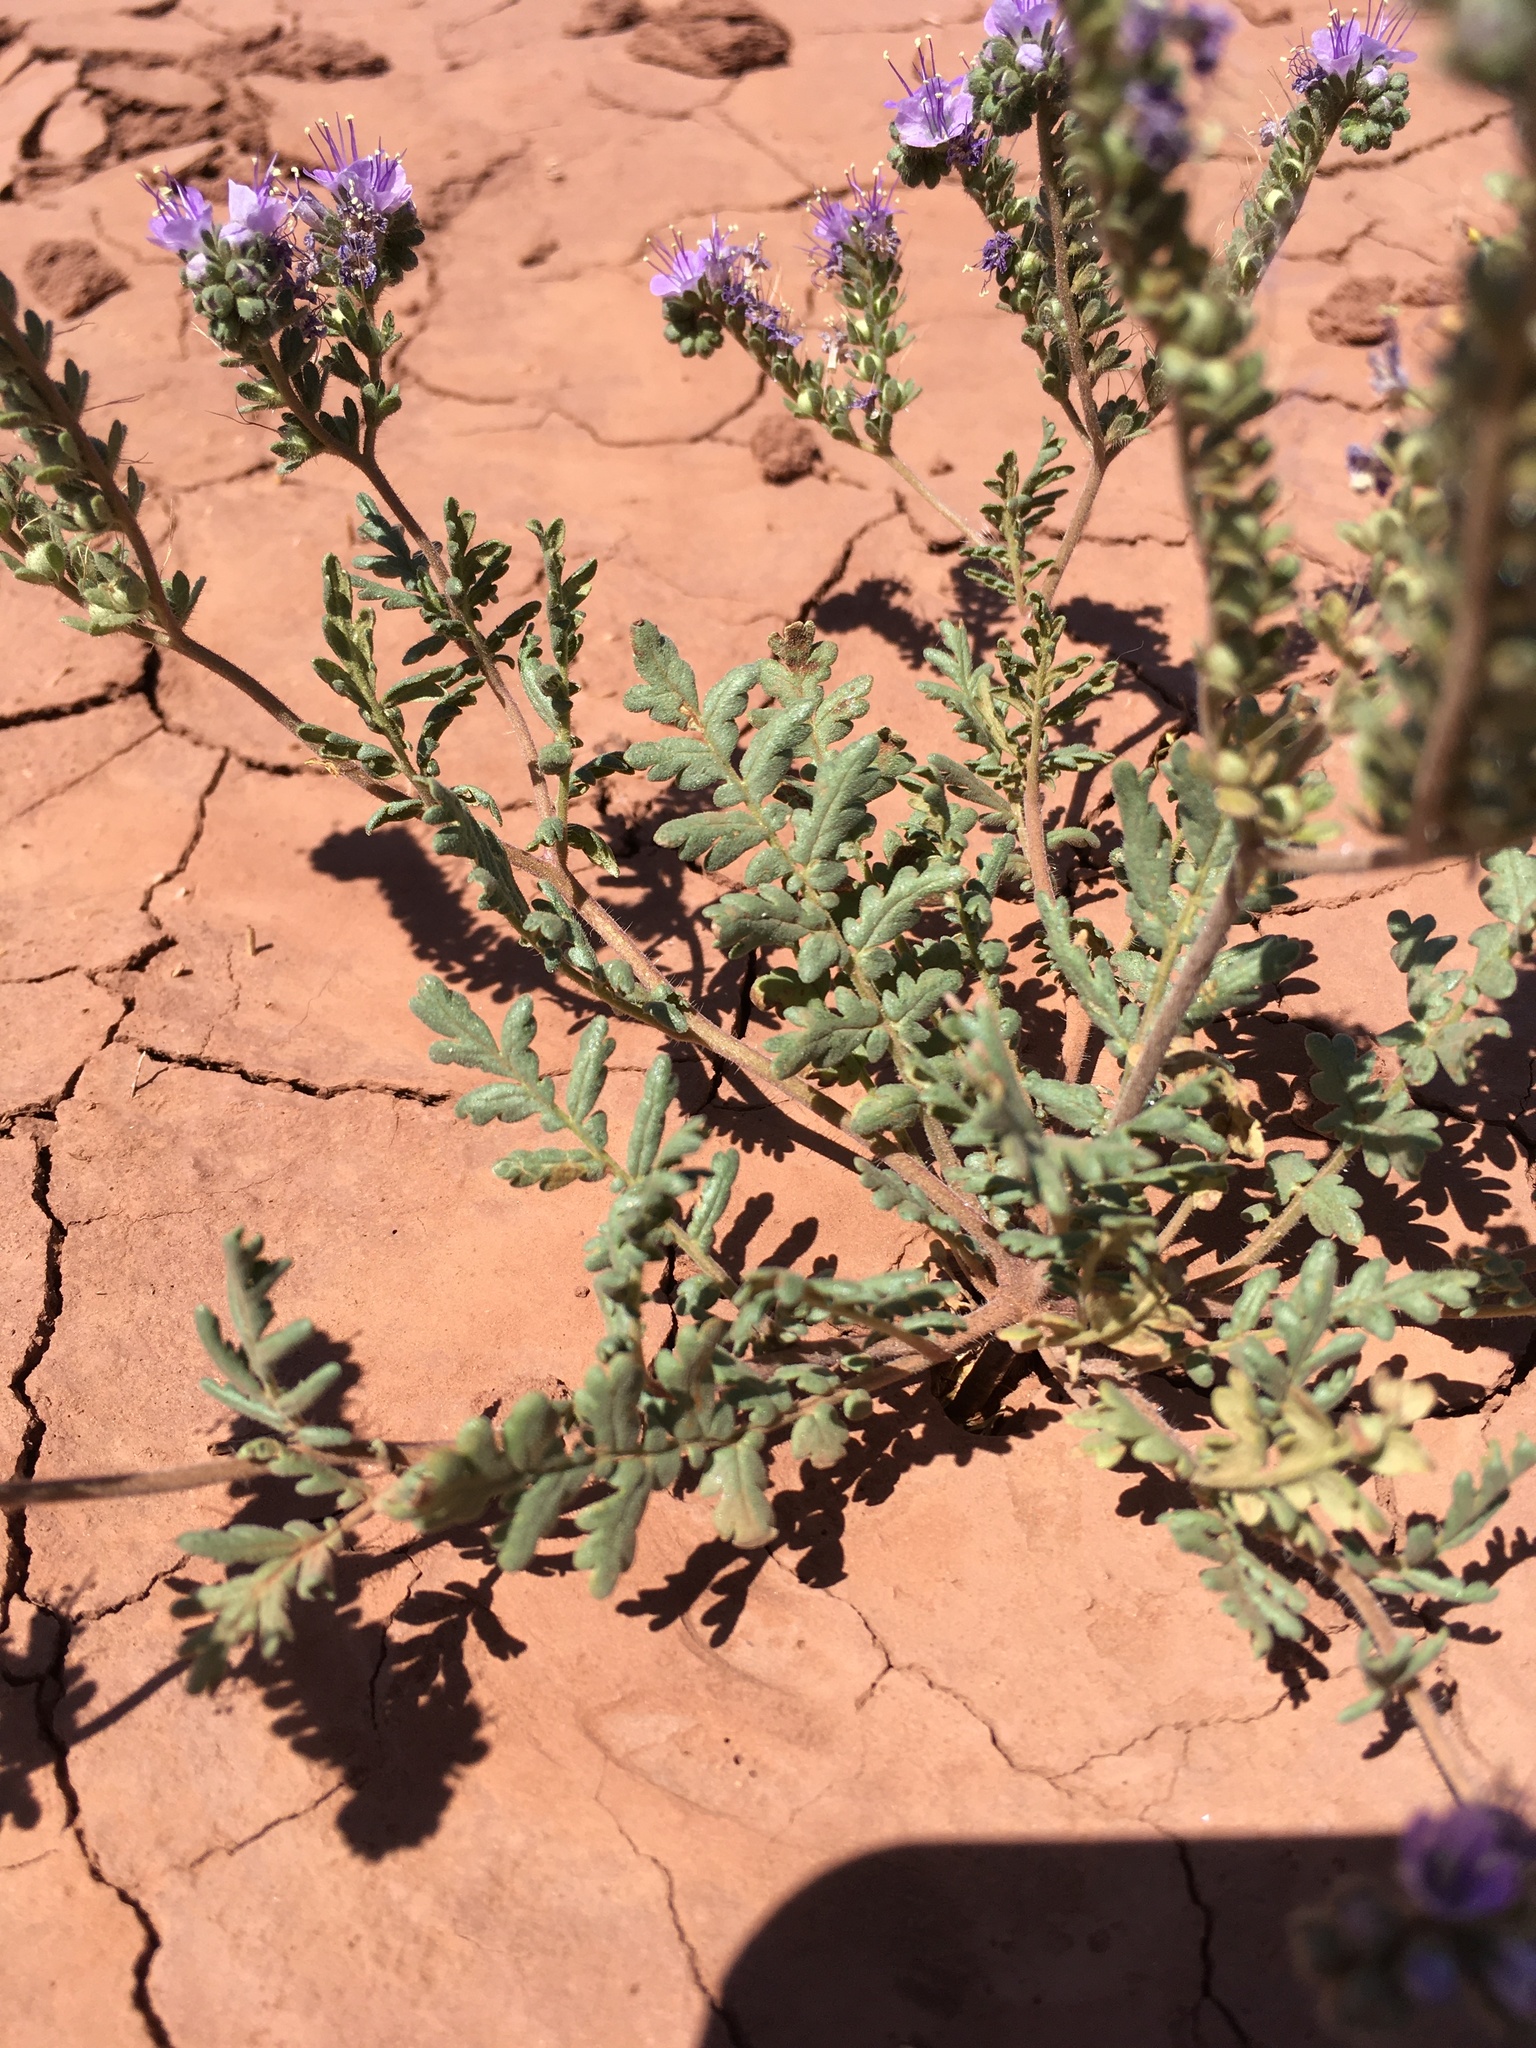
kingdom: Plantae
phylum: Tracheophyta
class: Magnoliopsida
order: Boraginales
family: Hydrophyllaceae
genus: Phacelia
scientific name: Phacelia popei
